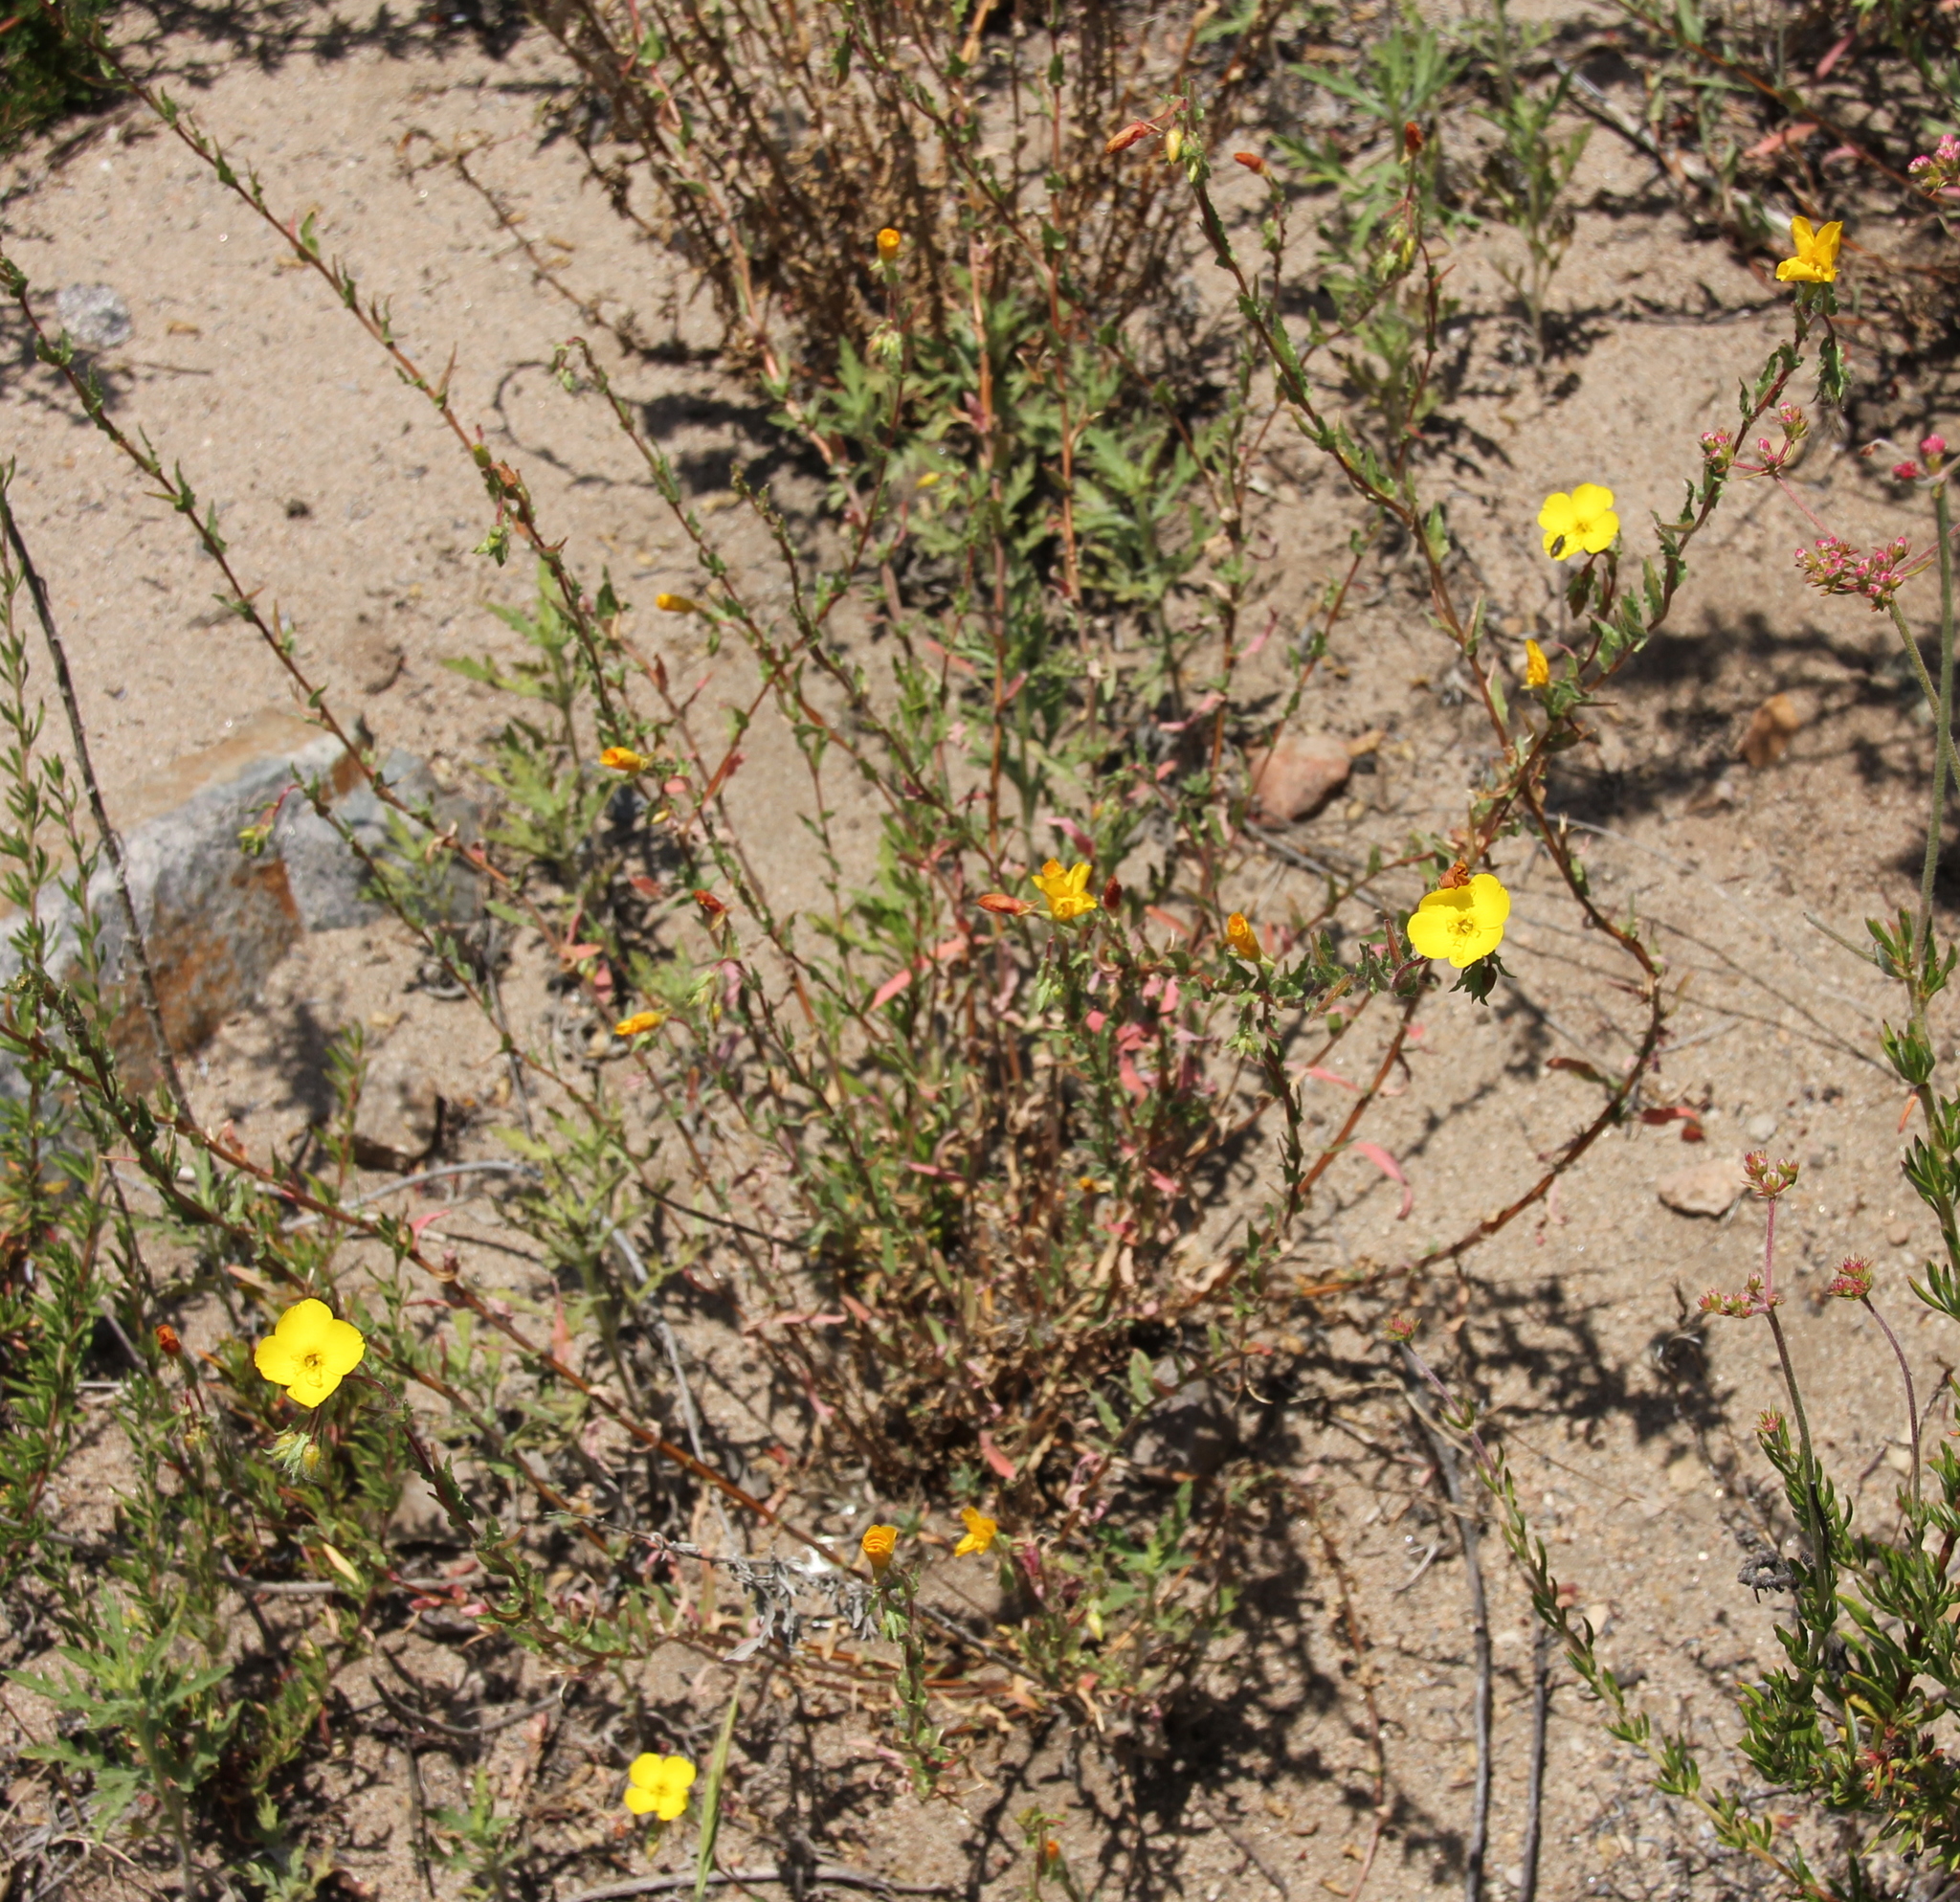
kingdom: Plantae
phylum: Tracheophyta
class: Magnoliopsida
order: Myrtales
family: Onagraceae
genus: Camissoniopsis
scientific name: Camissoniopsis bistorta
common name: Southern suncup
